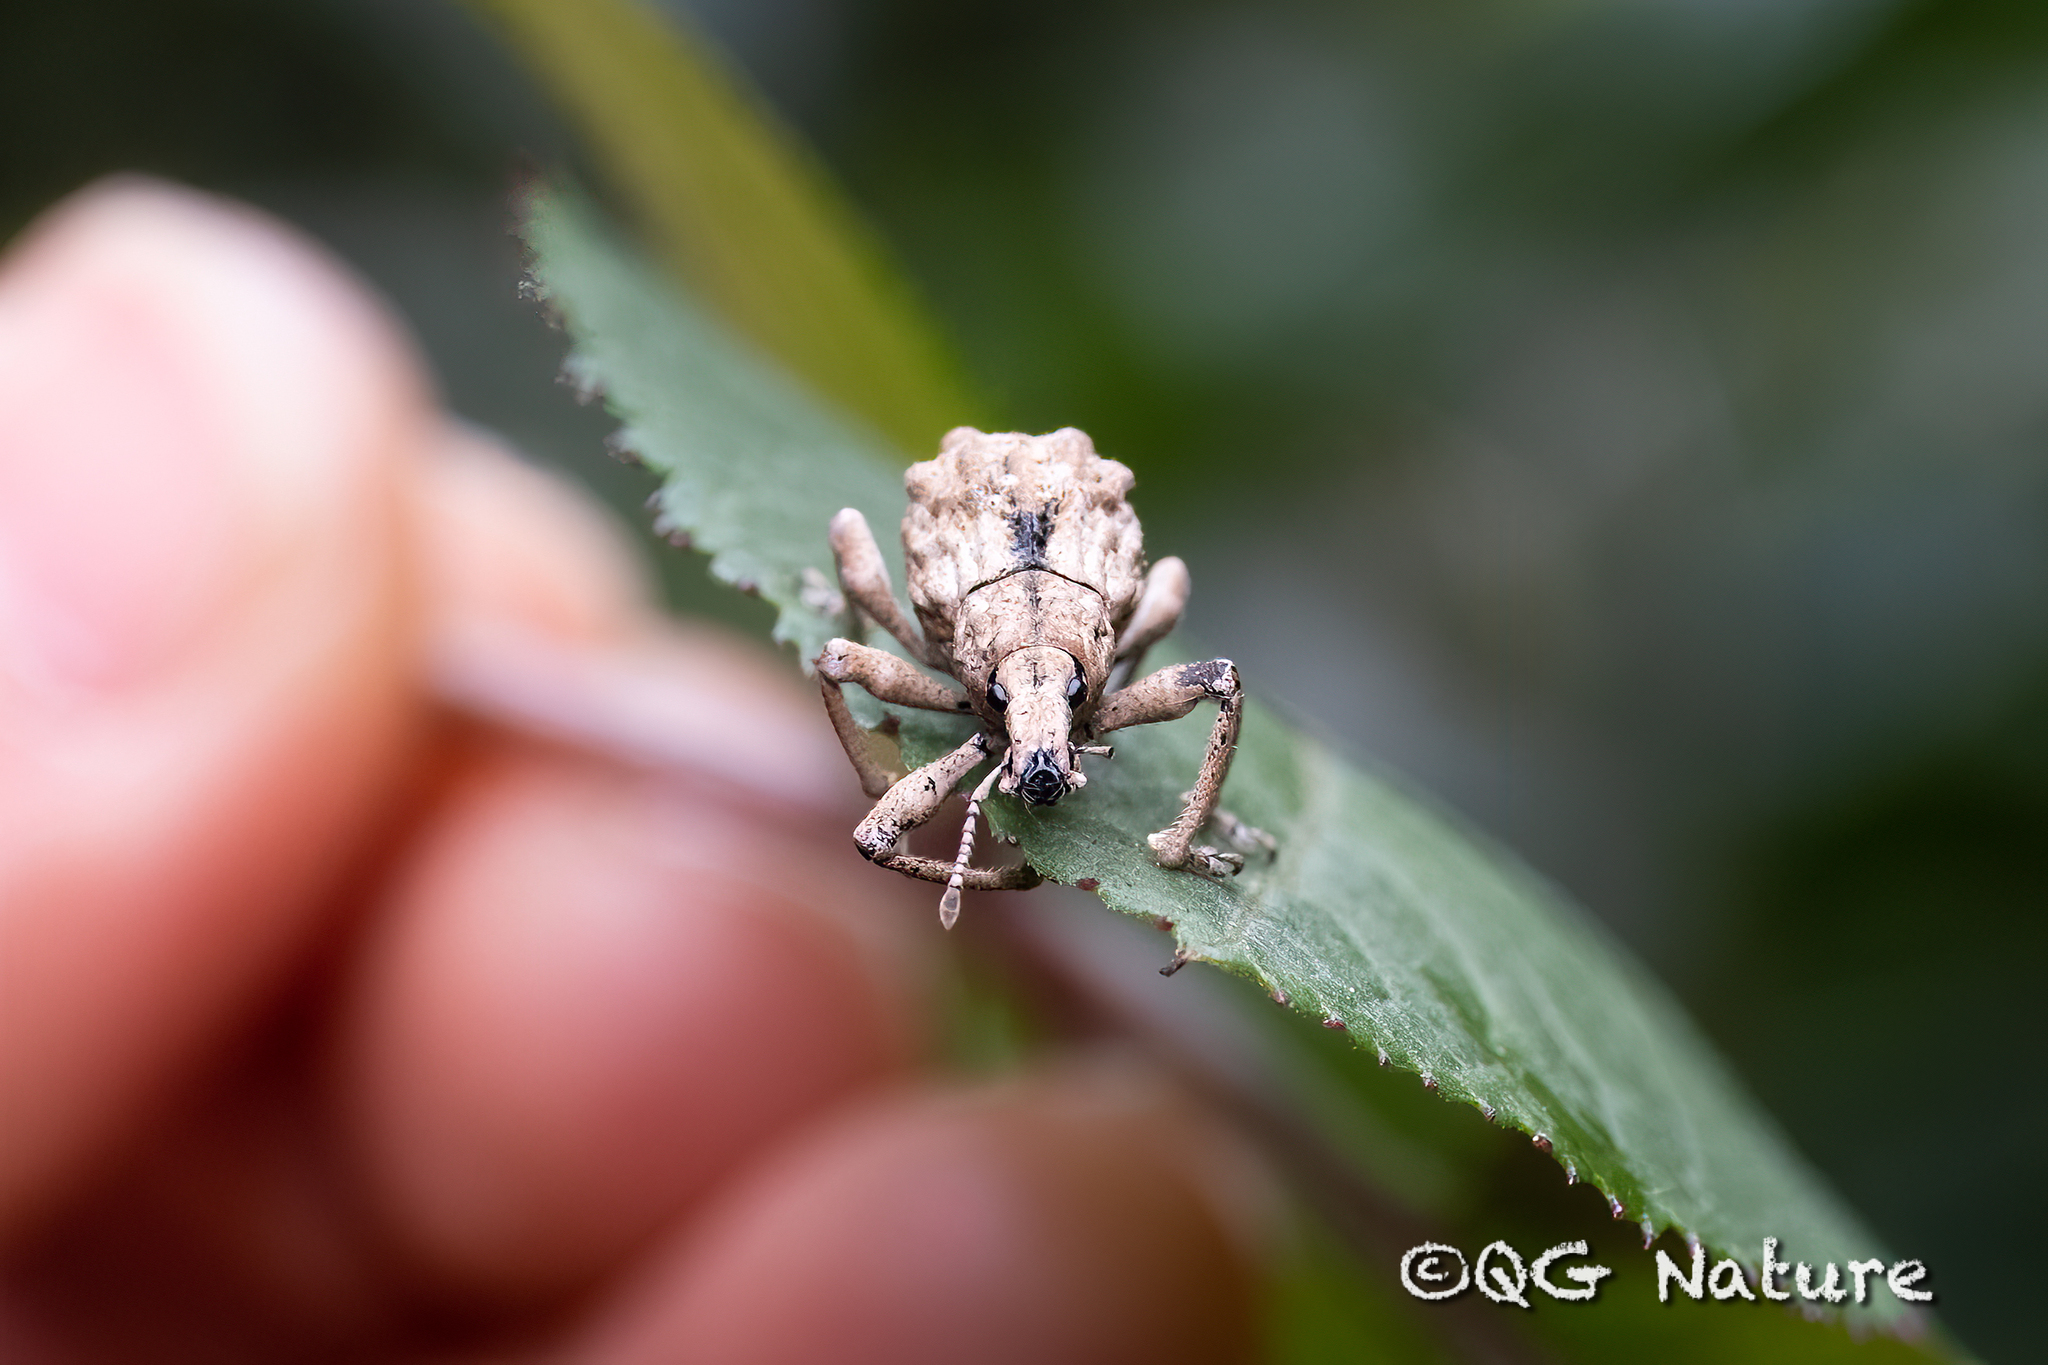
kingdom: Animalia
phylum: Arthropoda
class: Insecta
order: Coleoptera
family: Curculionidae
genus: Dermatoxenus
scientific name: Dermatoxenus caesicollis
